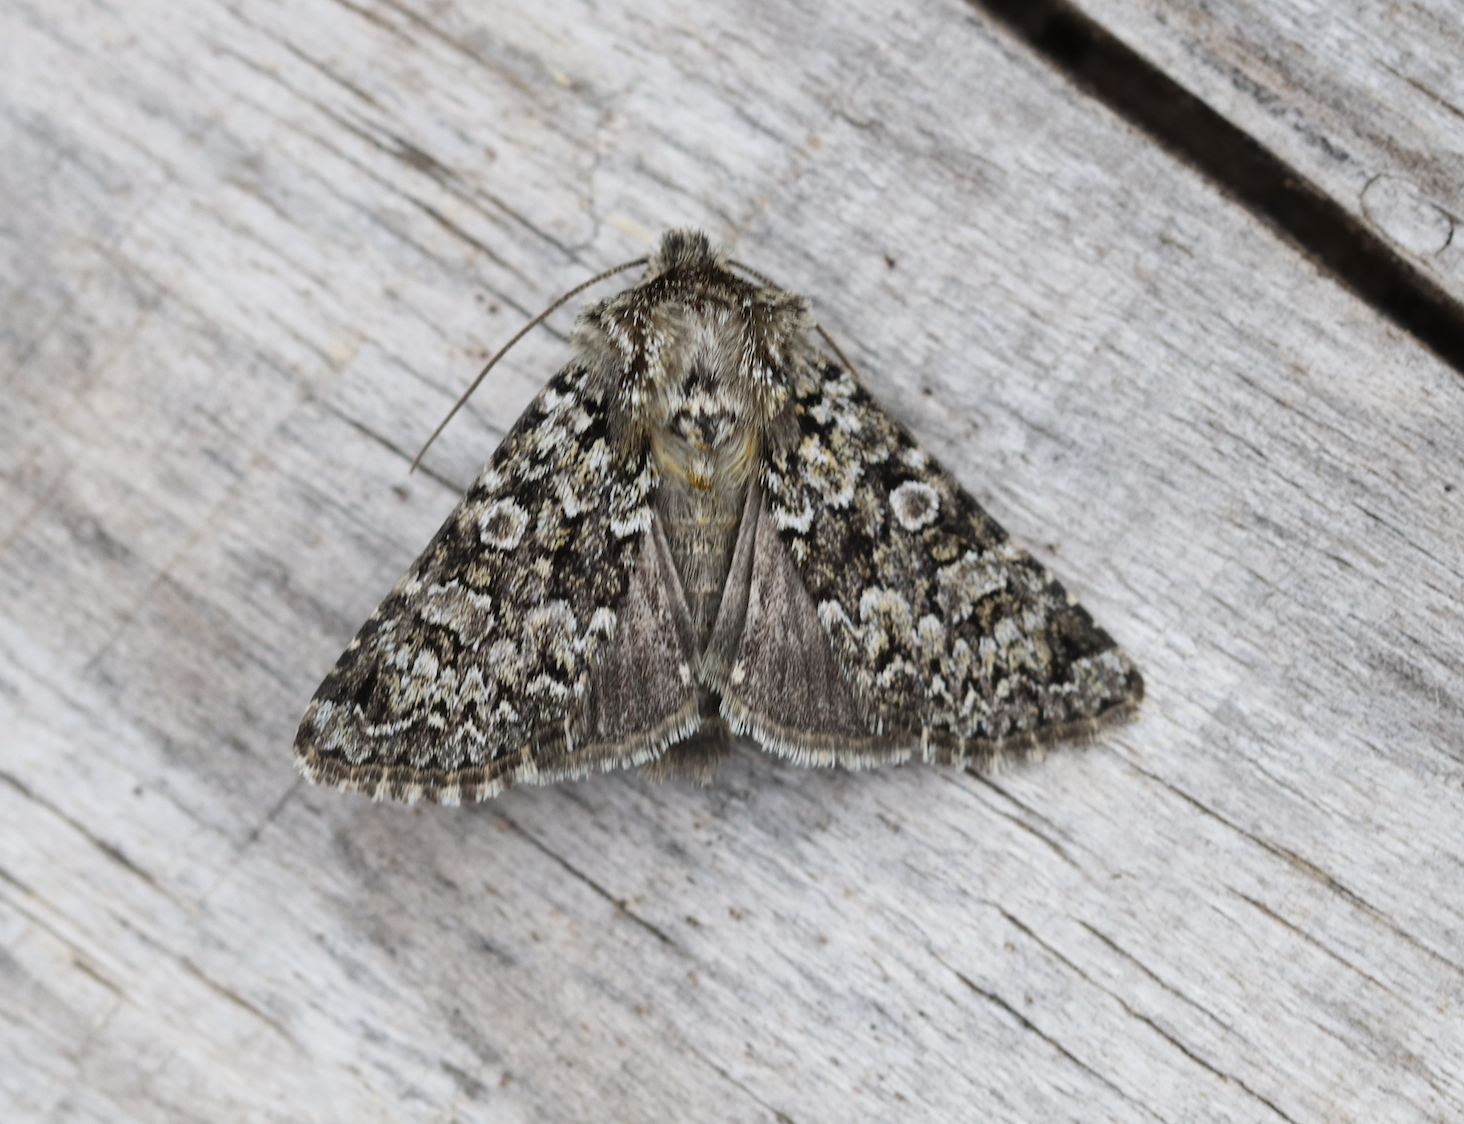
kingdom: Animalia
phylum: Arthropoda
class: Insecta
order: Lepidoptera
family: Noctuidae
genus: Hadena
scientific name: Hadena tephroleuca
